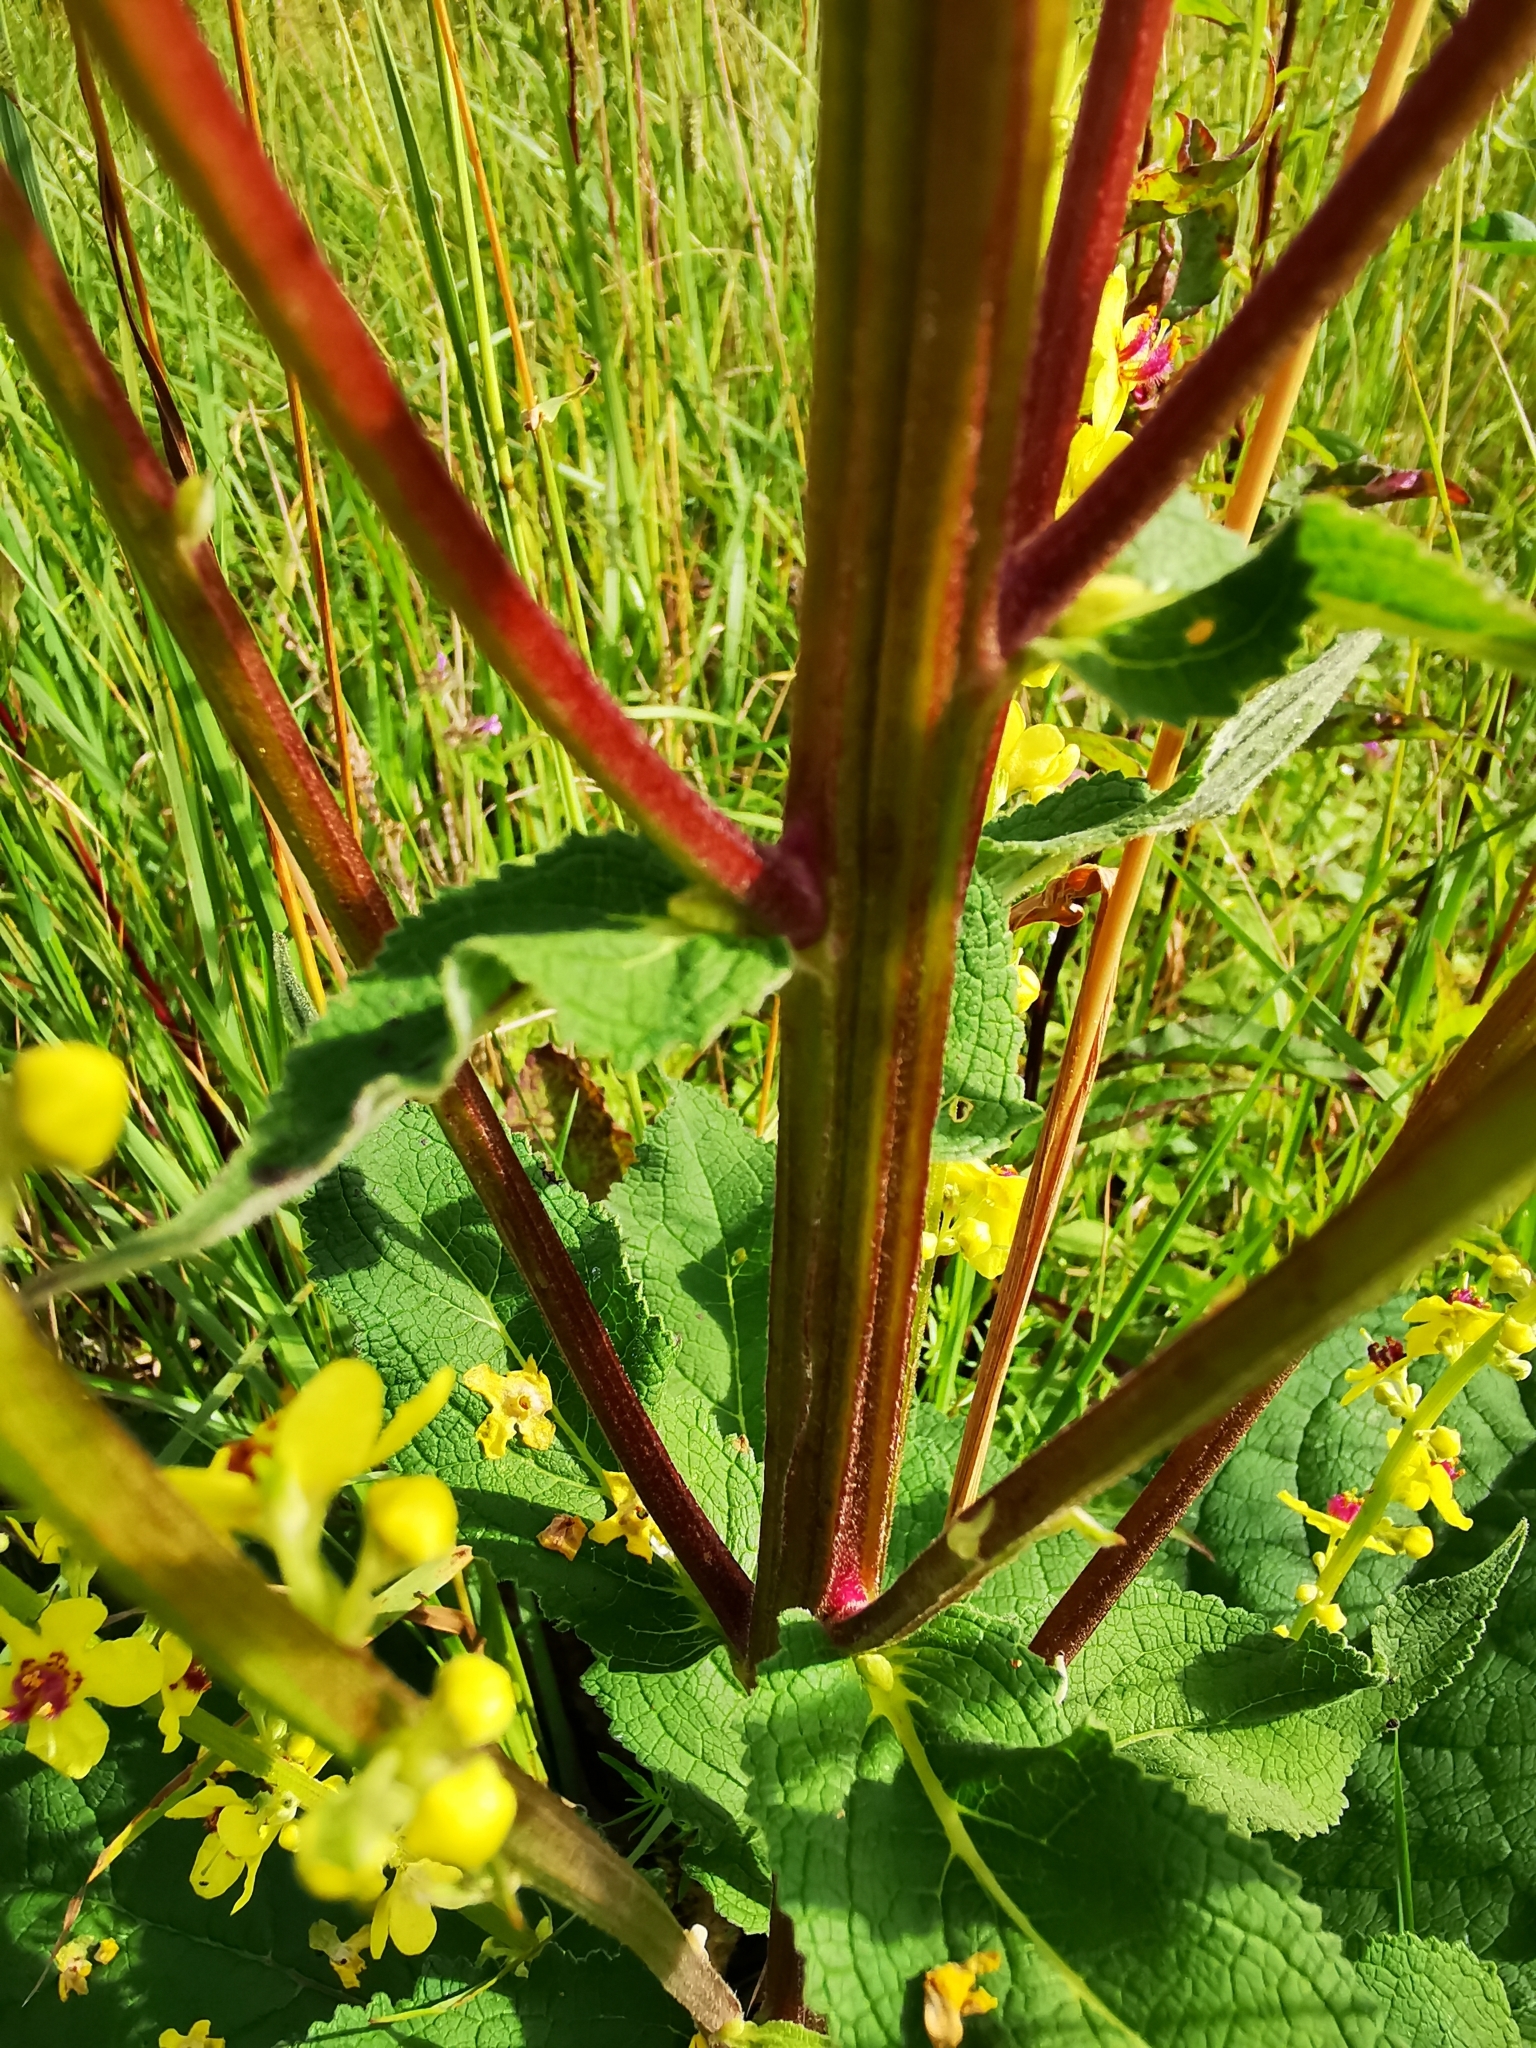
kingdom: Plantae
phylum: Tracheophyta
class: Magnoliopsida
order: Lamiales
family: Scrophulariaceae
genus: Verbascum
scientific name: Verbascum nigrum
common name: Dark mullein
